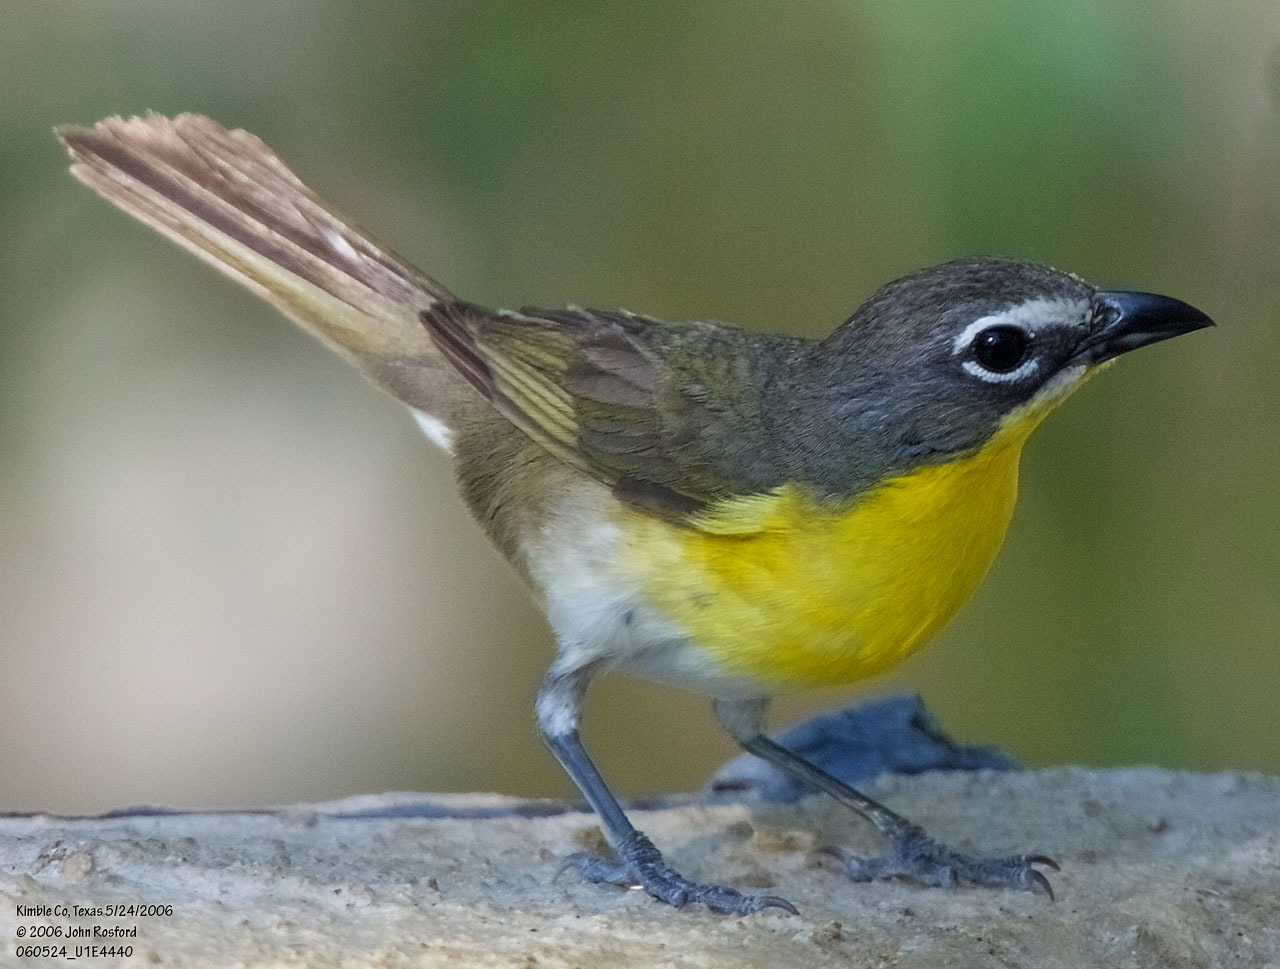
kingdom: Animalia
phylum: Chordata
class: Aves
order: Passeriformes
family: Parulidae
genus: Icteria
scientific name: Icteria virens
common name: Yellow-breasted chat
